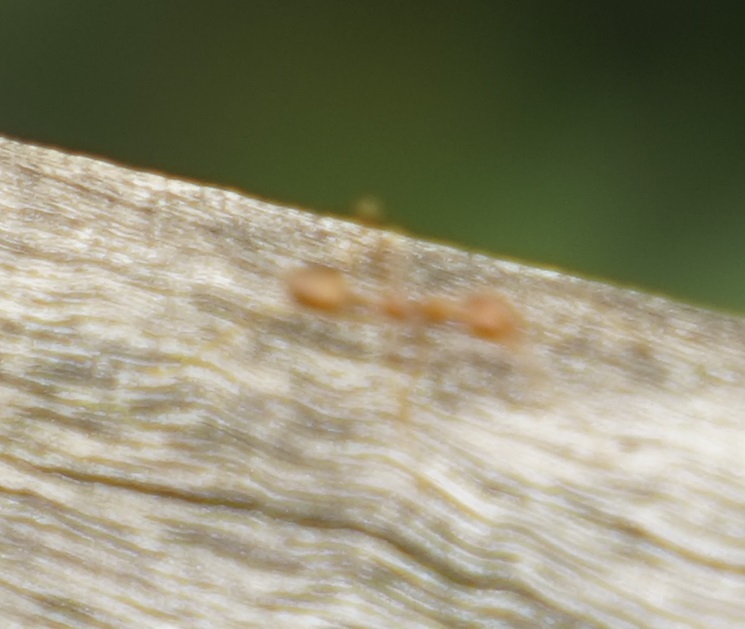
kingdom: Animalia
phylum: Arthropoda
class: Insecta
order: Hymenoptera
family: Formicidae
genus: Oecophylla
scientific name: Oecophylla smaragdina
